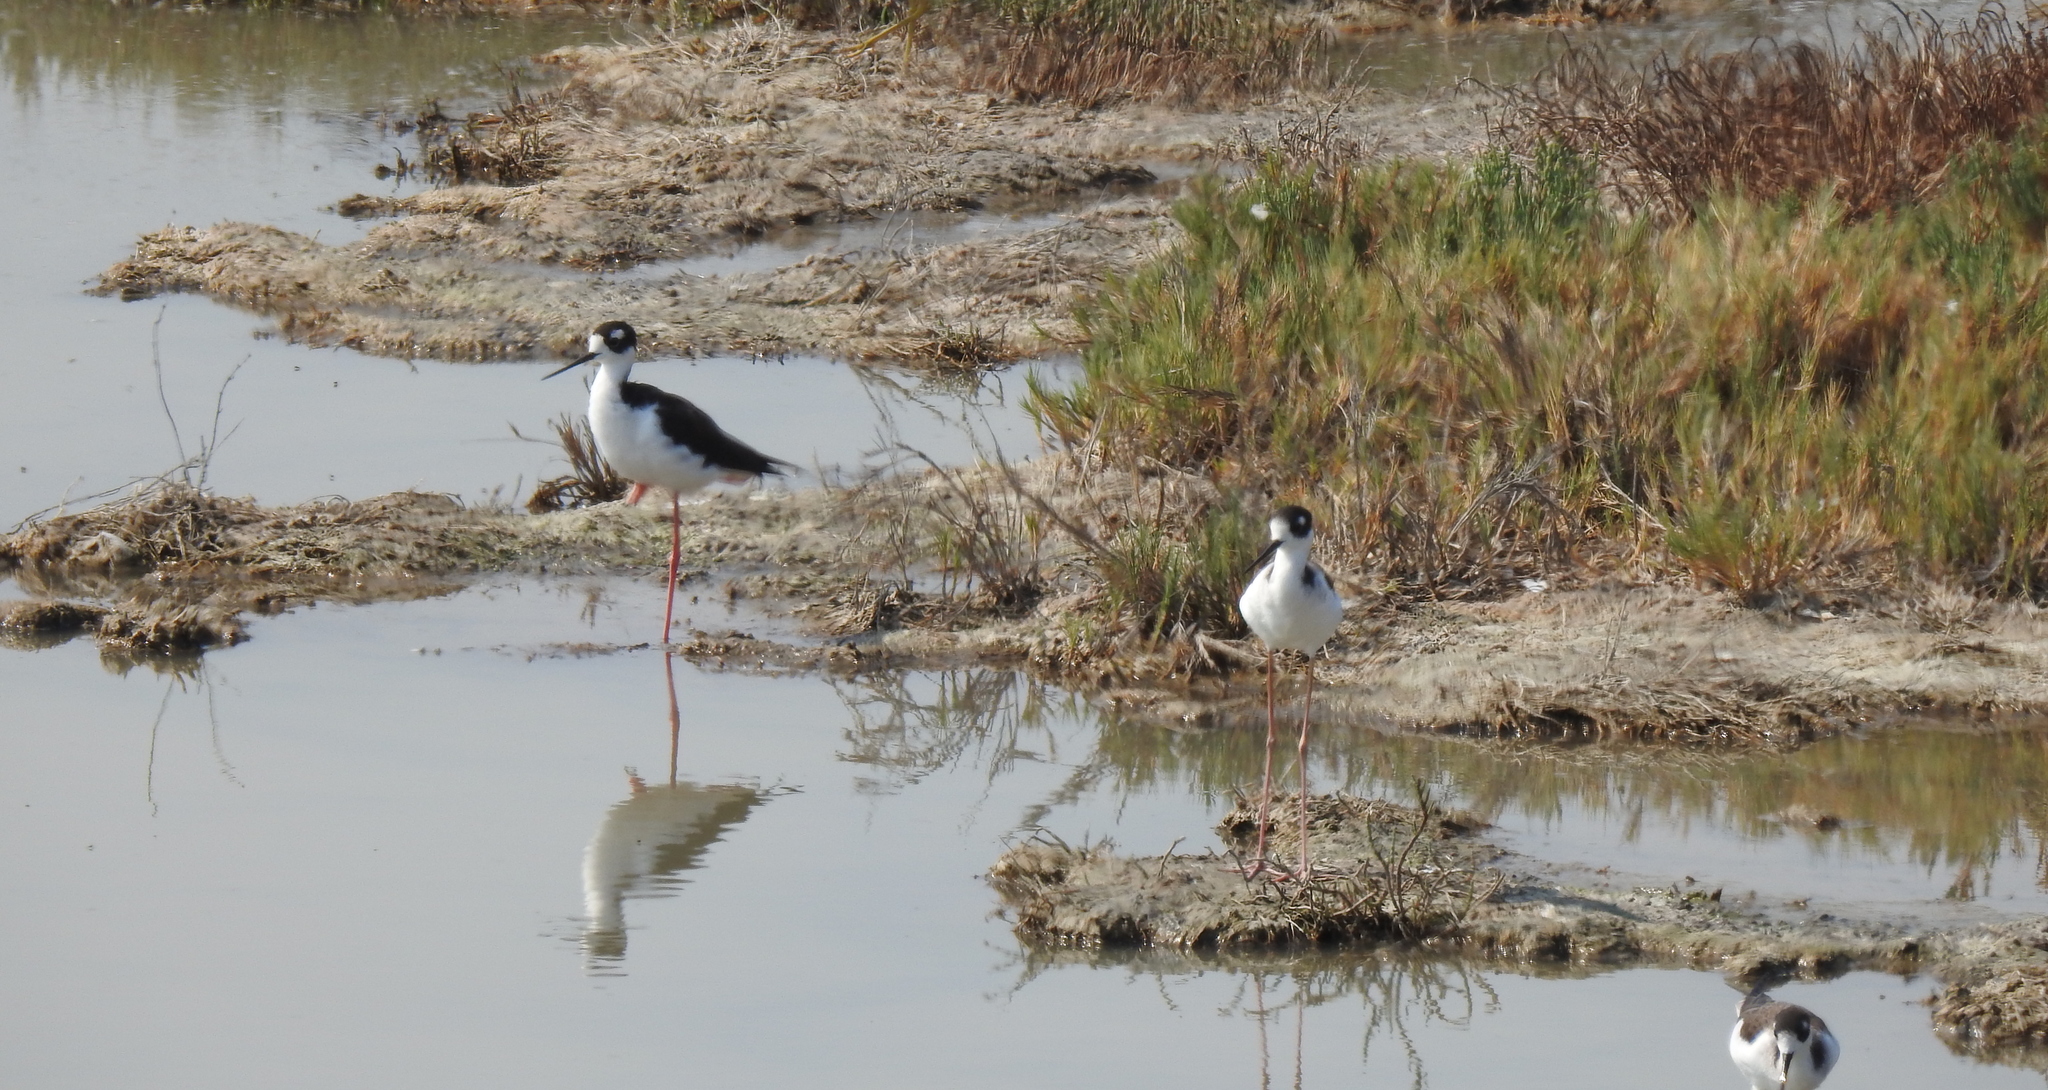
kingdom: Animalia
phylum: Chordata
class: Aves
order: Charadriiformes
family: Recurvirostridae
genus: Himantopus
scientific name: Himantopus mexicanus
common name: Black-necked stilt
